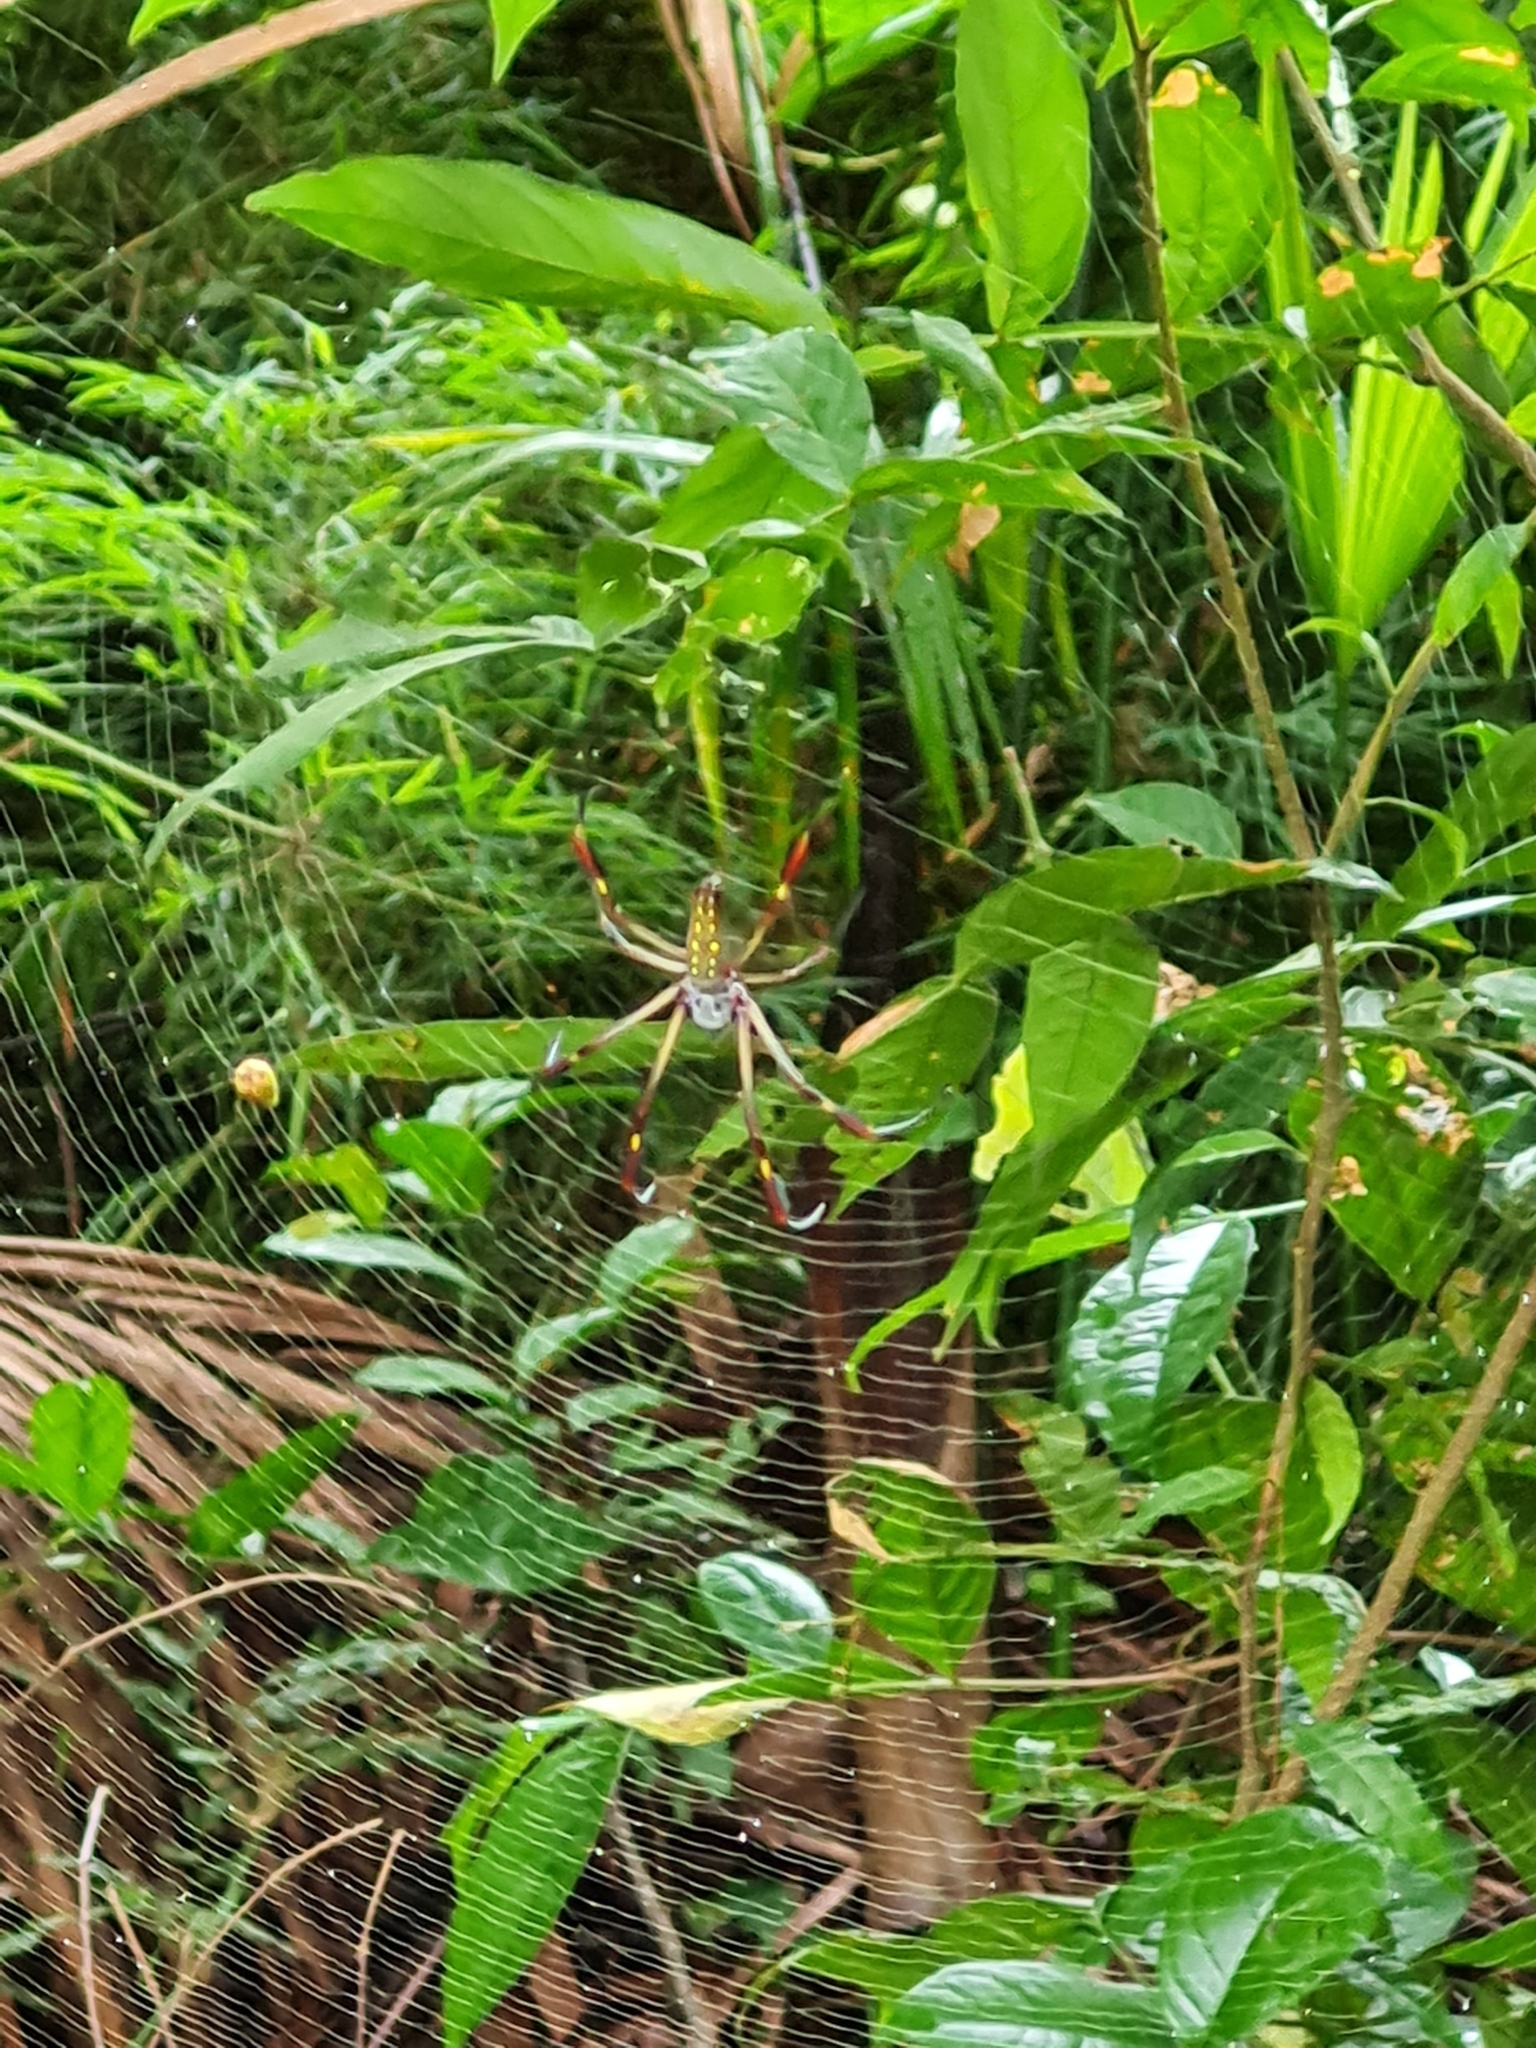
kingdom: Animalia
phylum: Arthropoda
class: Arachnida
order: Araneae
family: Araneidae
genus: Trichonephila
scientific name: Trichonephila clavipes
